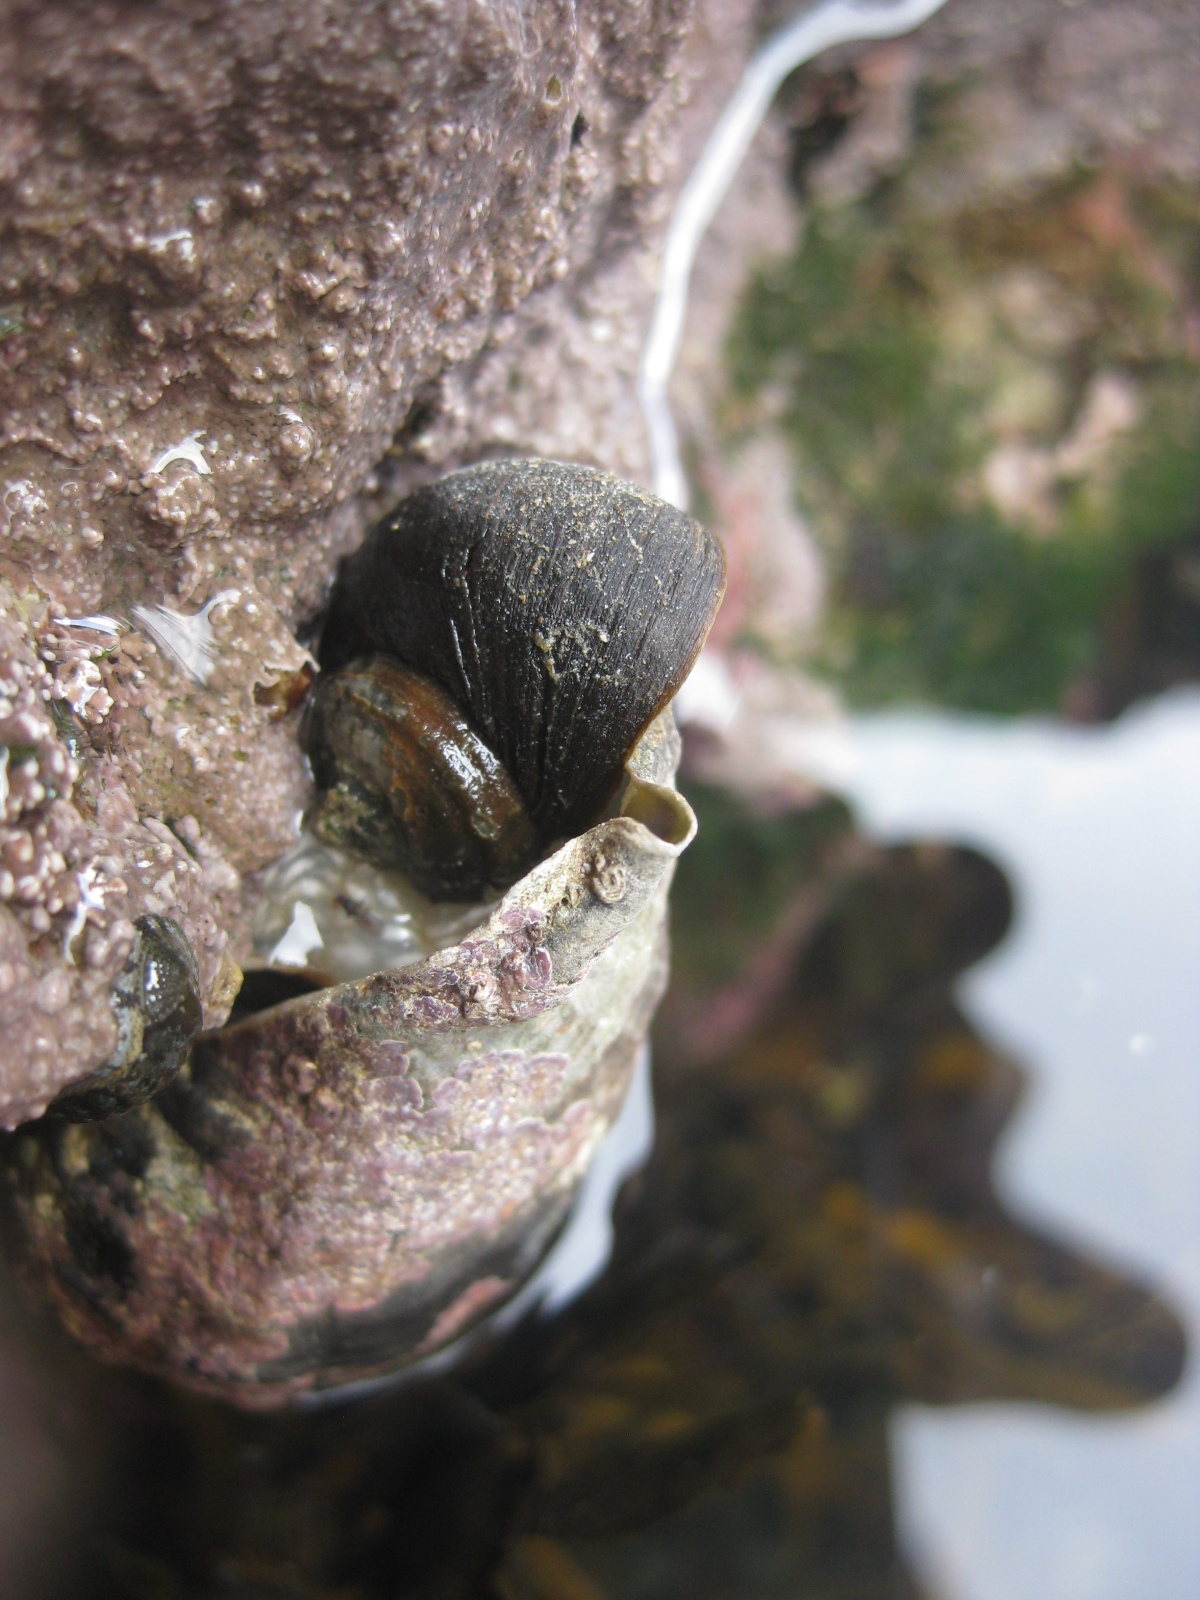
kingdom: Animalia
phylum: Mollusca
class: Gastropoda
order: Trochida
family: Turbinidae
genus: Lunella
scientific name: Lunella smaragda
